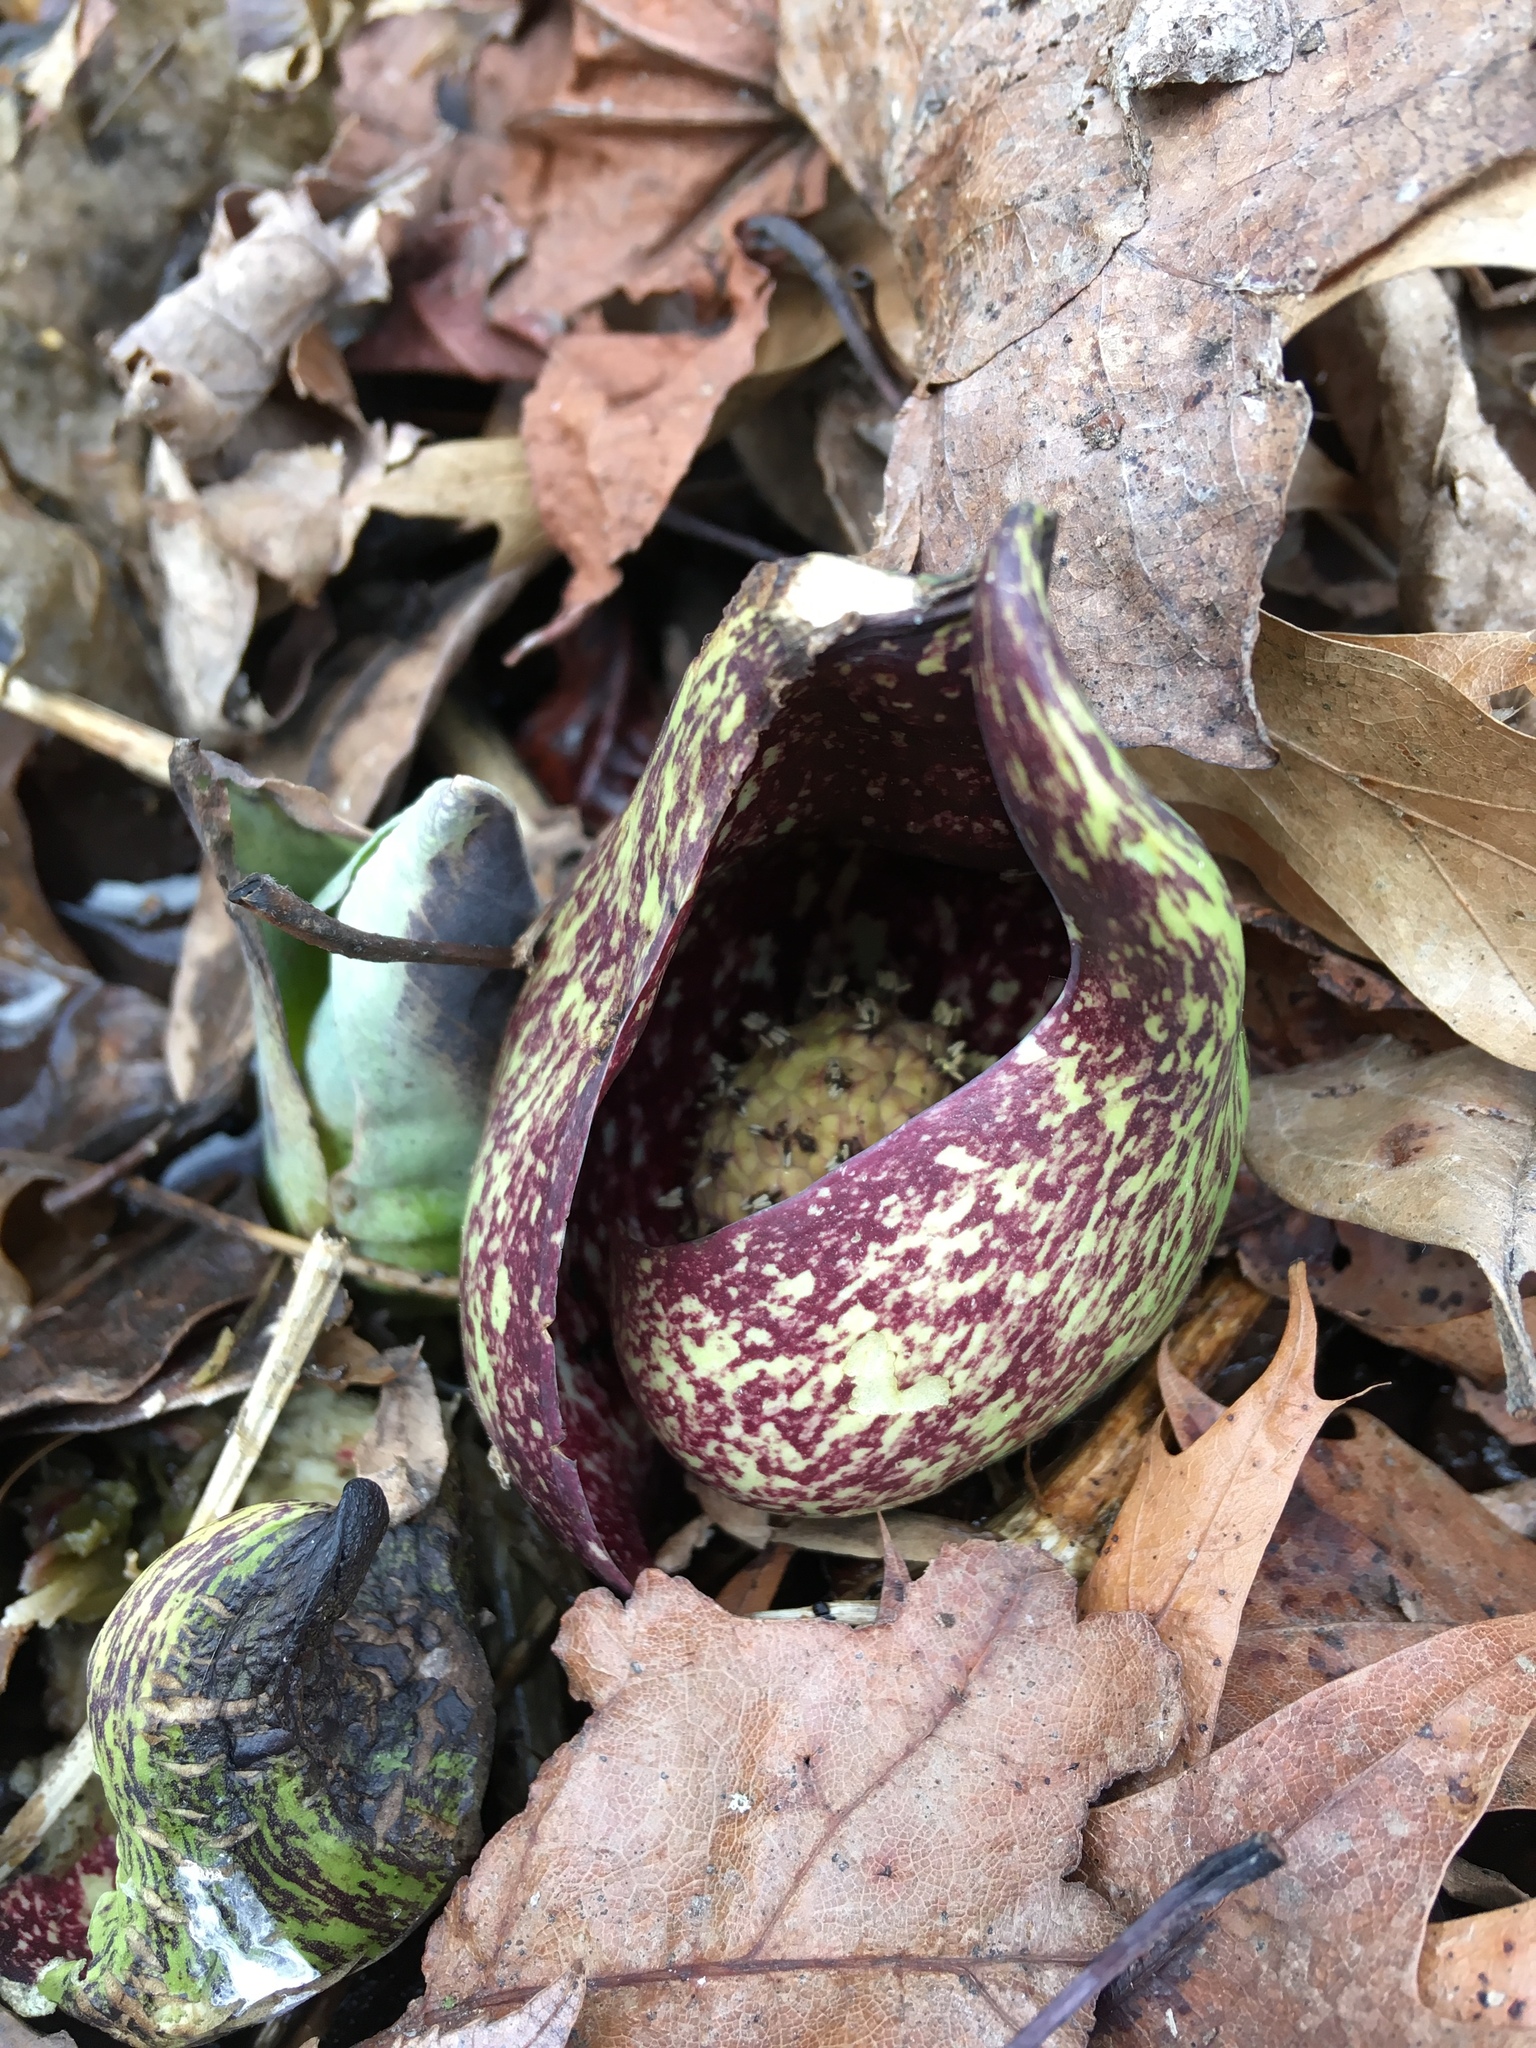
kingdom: Plantae
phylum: Tracheophyta
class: Liliopsida
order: Alismatales
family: Araceae
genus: Symplocarpus
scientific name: Symplocarpus foetidus
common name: Eastern skunk cabbage
